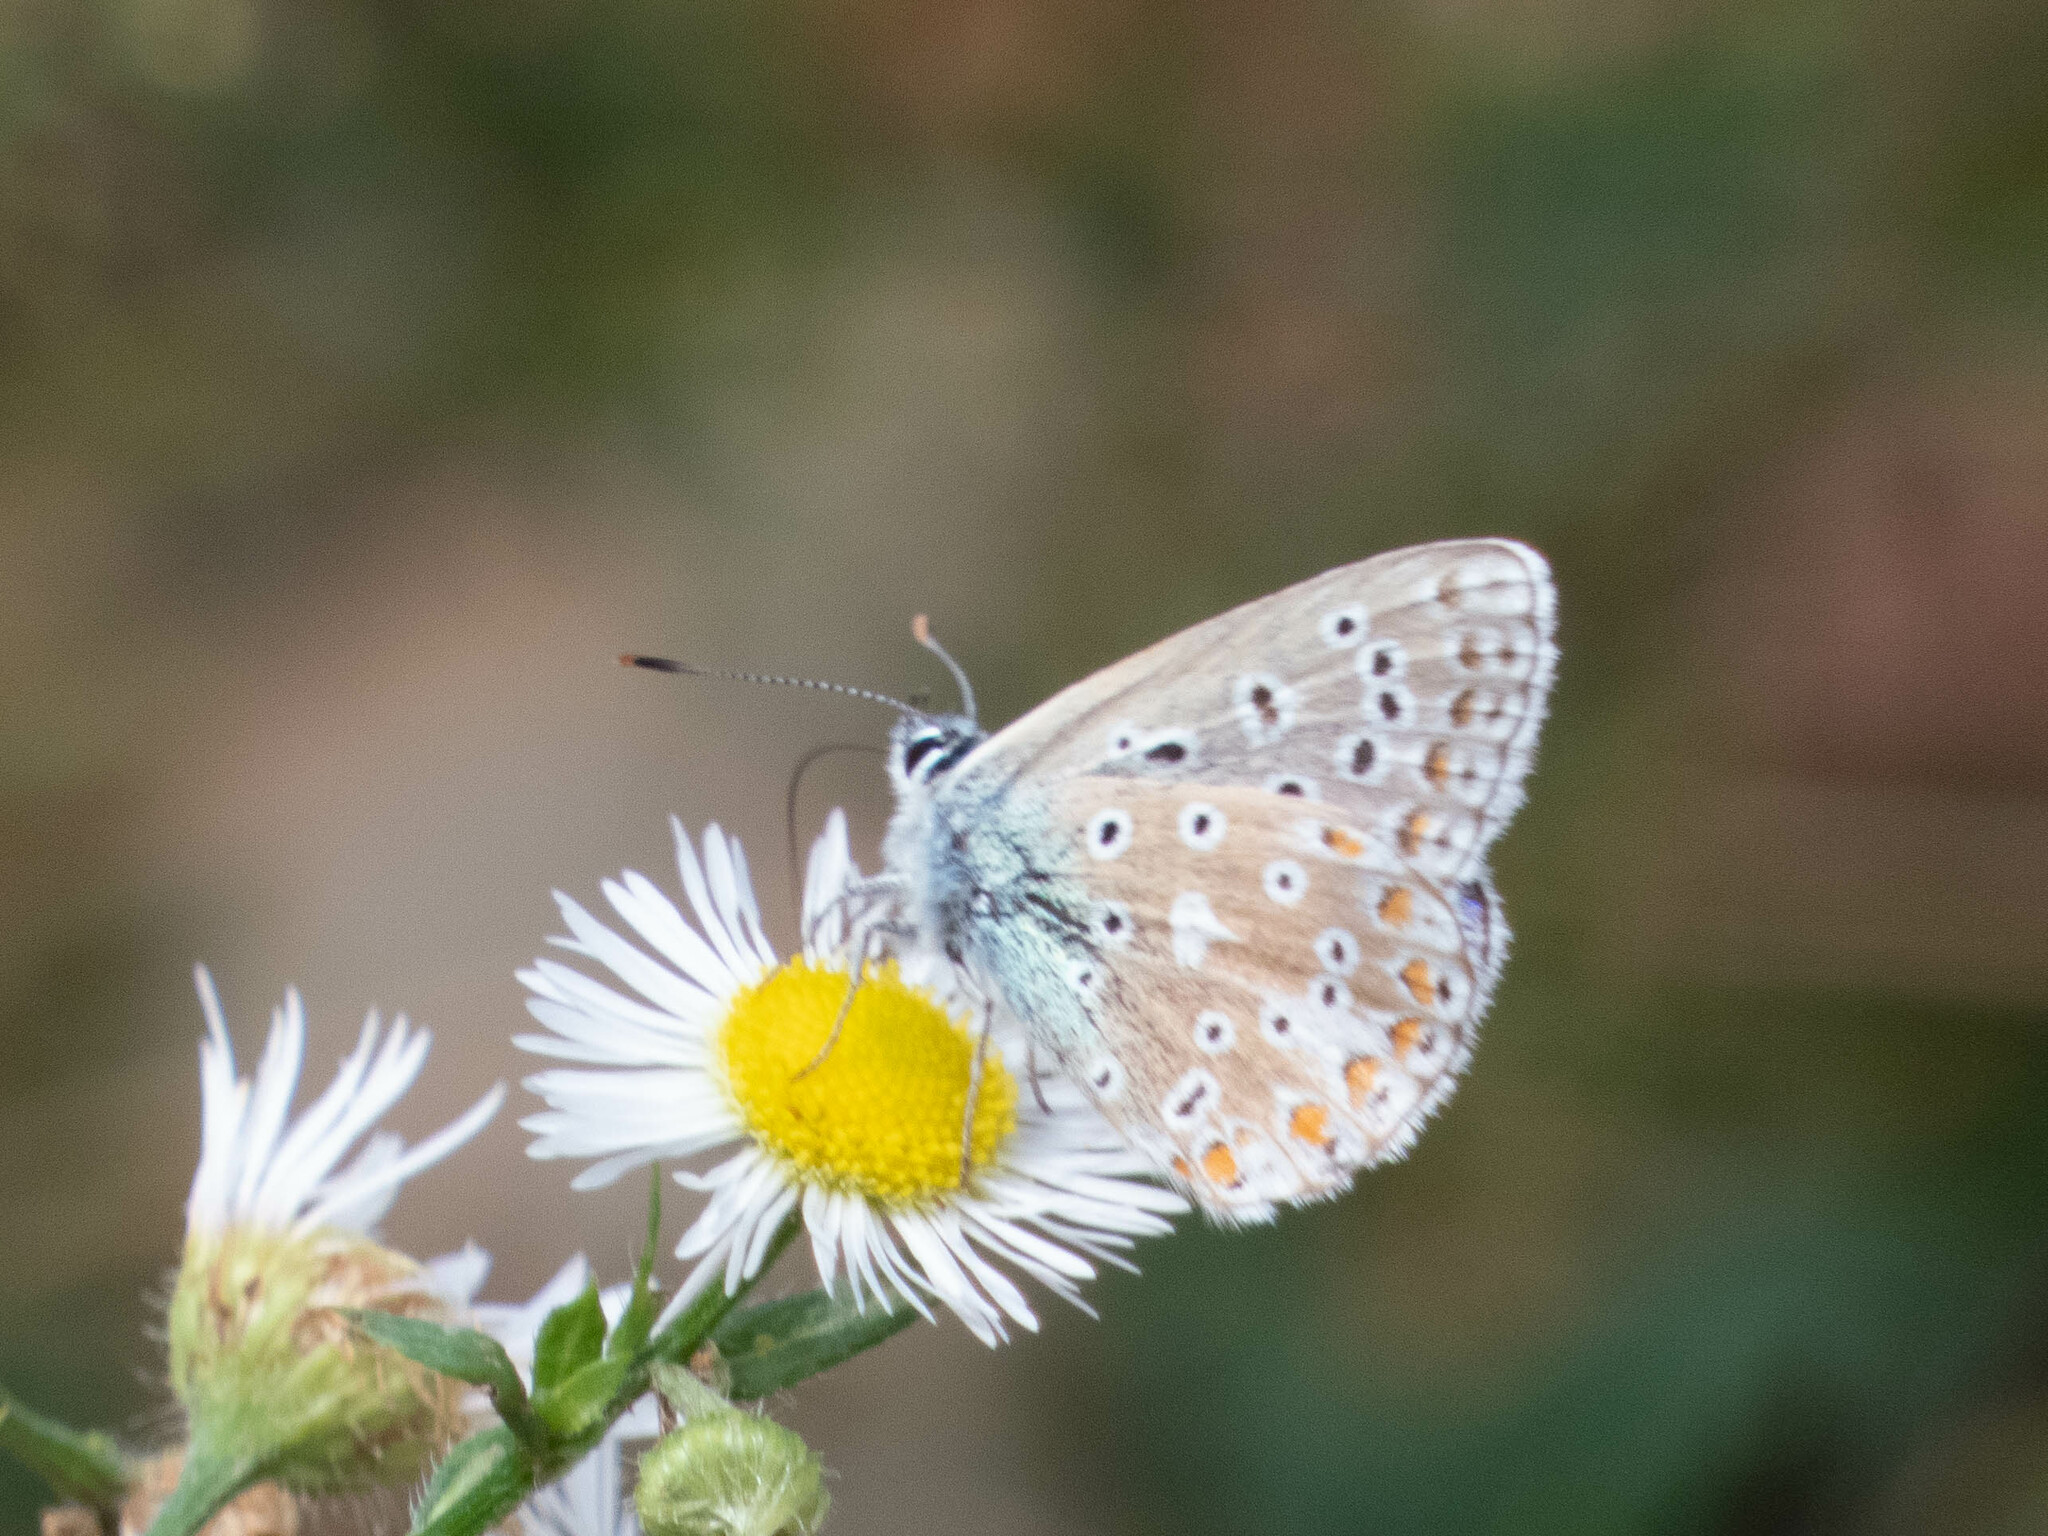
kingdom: Animalia
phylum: Arthropoda
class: Insecta
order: Lepidoptera
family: Lycaenidae
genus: Lysandra
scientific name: Lysandra bellargus
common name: Adonis blue
